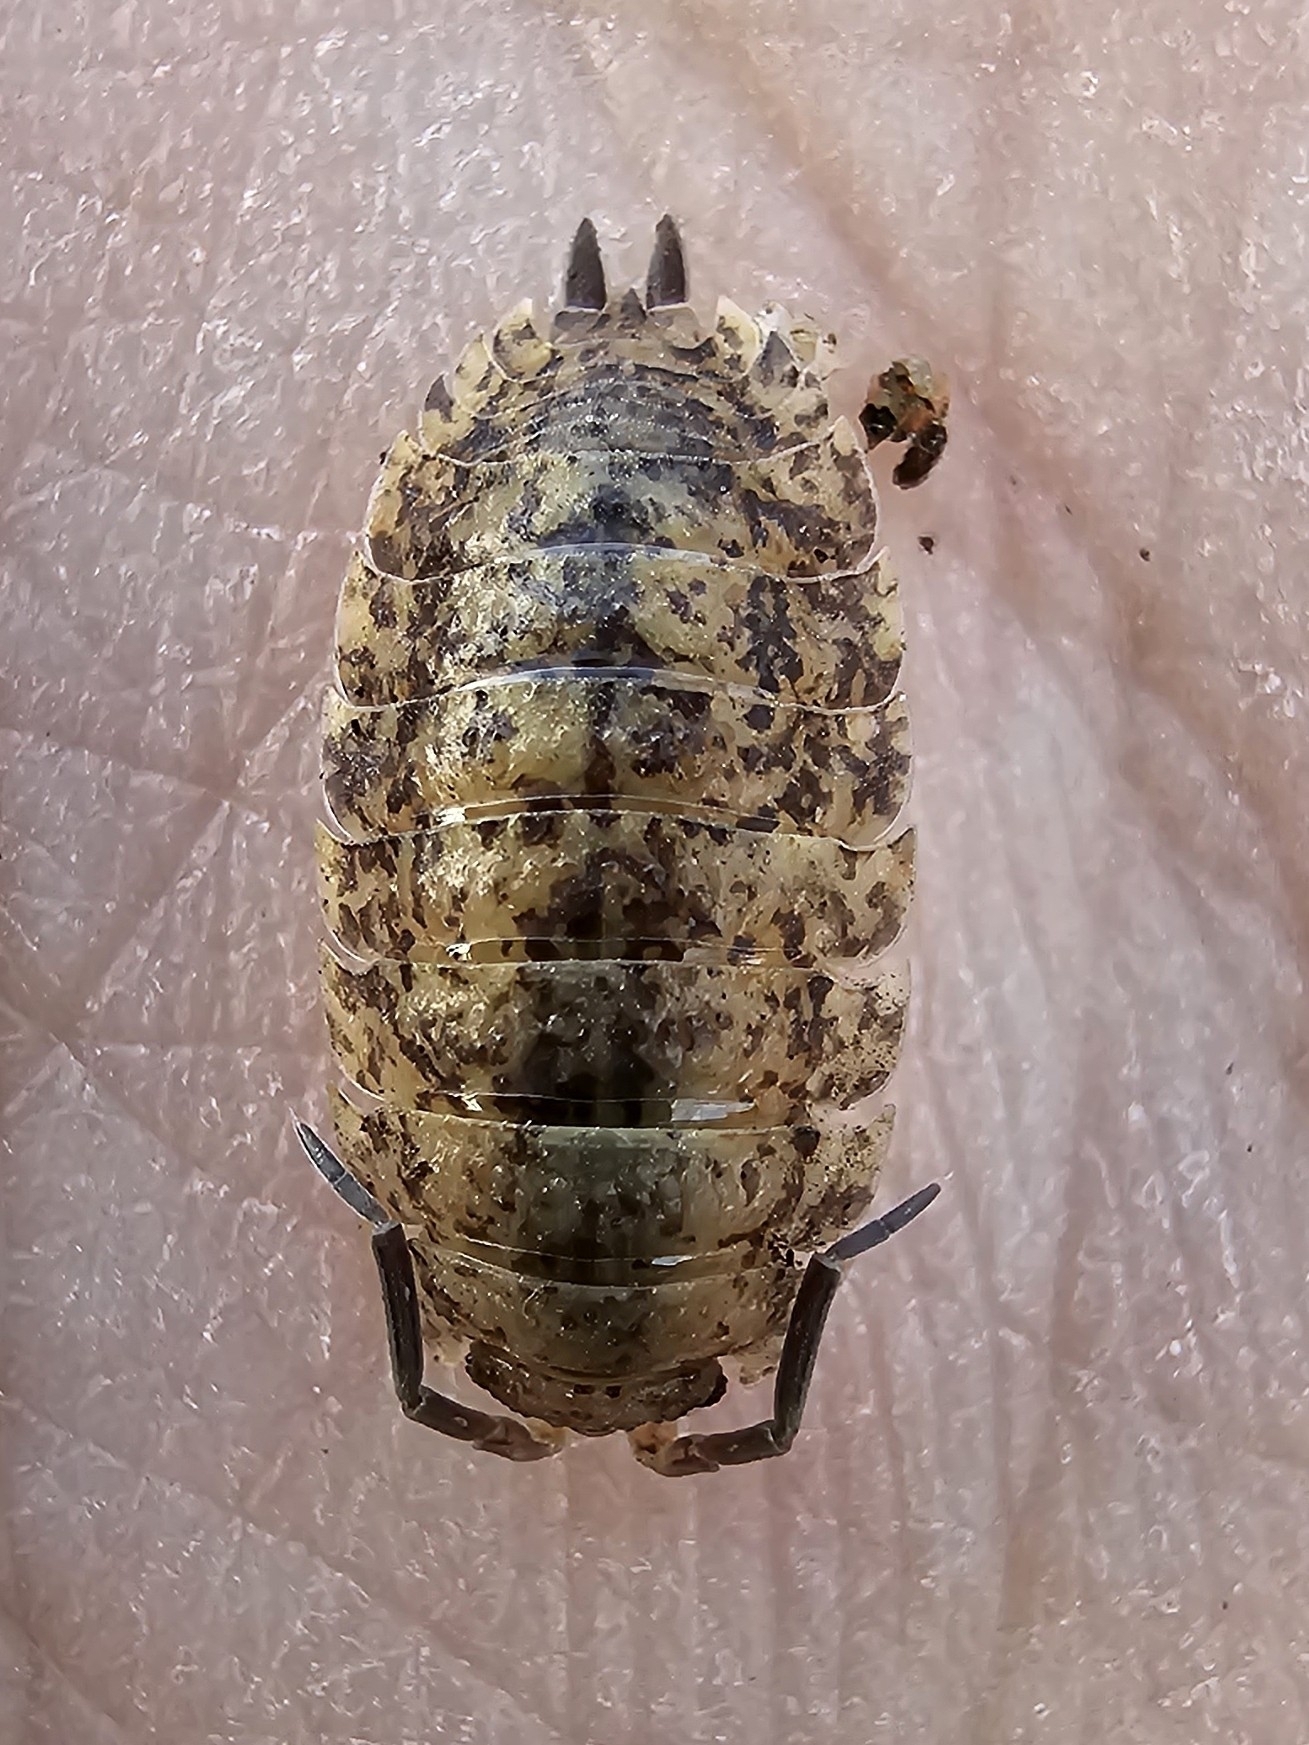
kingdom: Animalia
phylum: Arthropoda
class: Malacostraca
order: Isopoda
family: Porcellionidae
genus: Porcellio
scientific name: Porcellio scaber
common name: Common rough woodlouse
